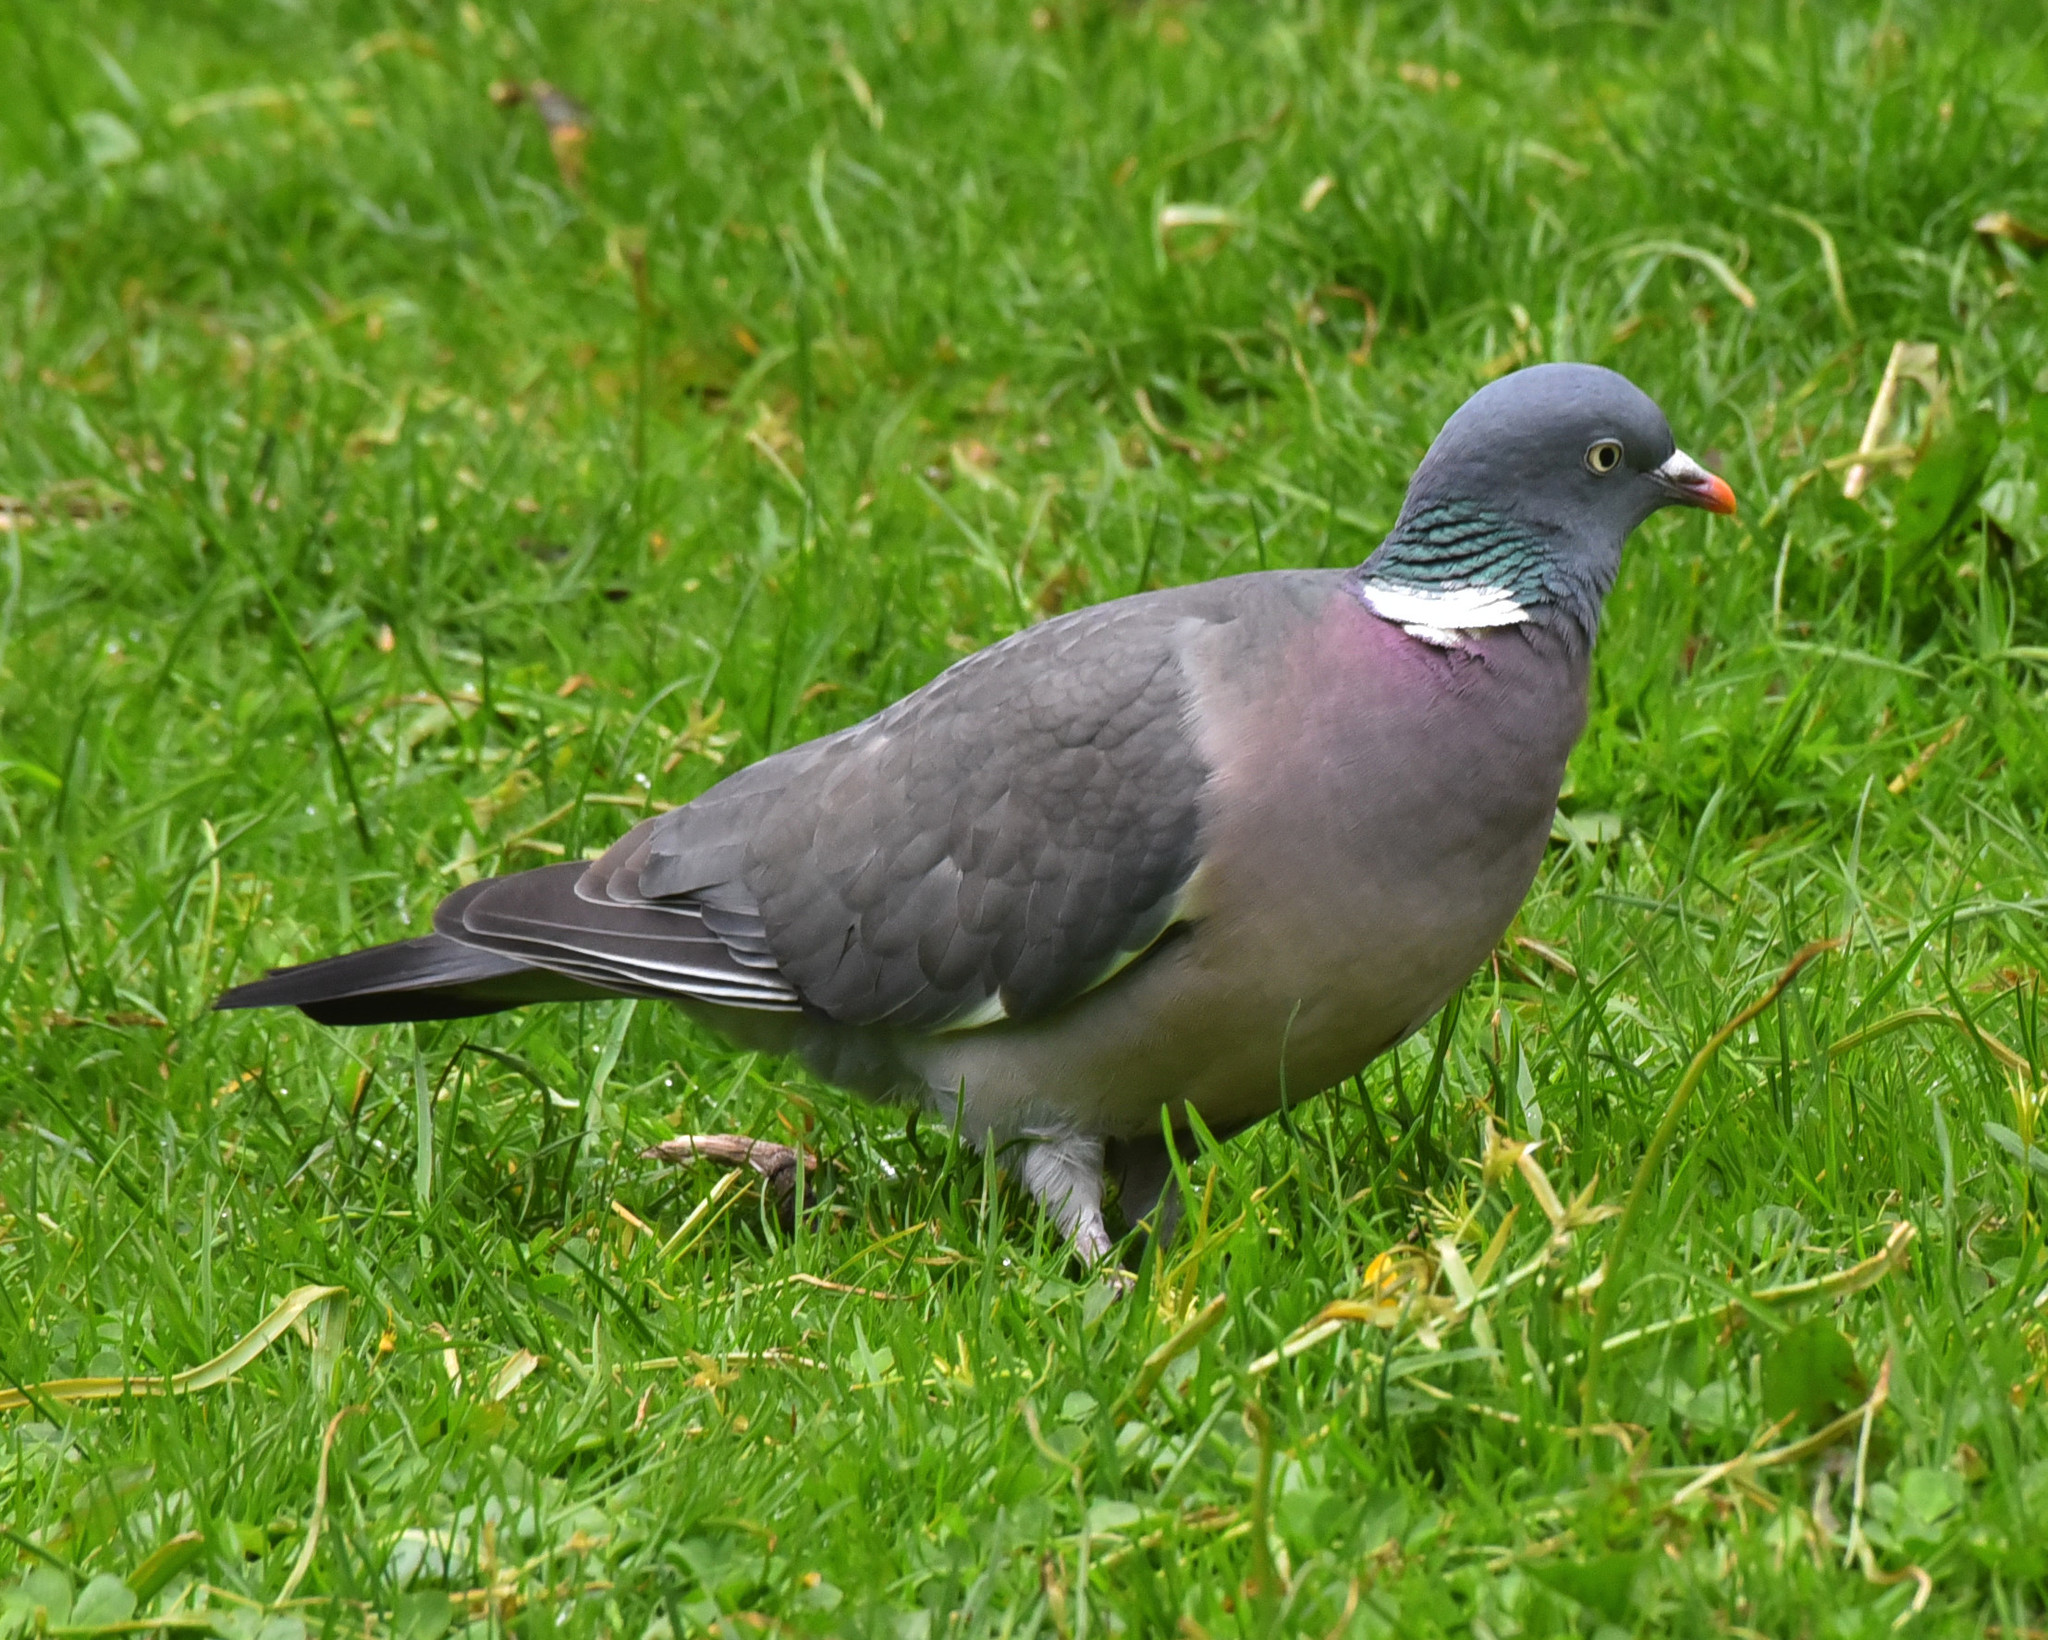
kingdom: Animalia
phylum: Chordata
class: Aves
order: Columbiformes
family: Columbidae
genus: Columba
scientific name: Columba palumbus
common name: Common wood pigeon
